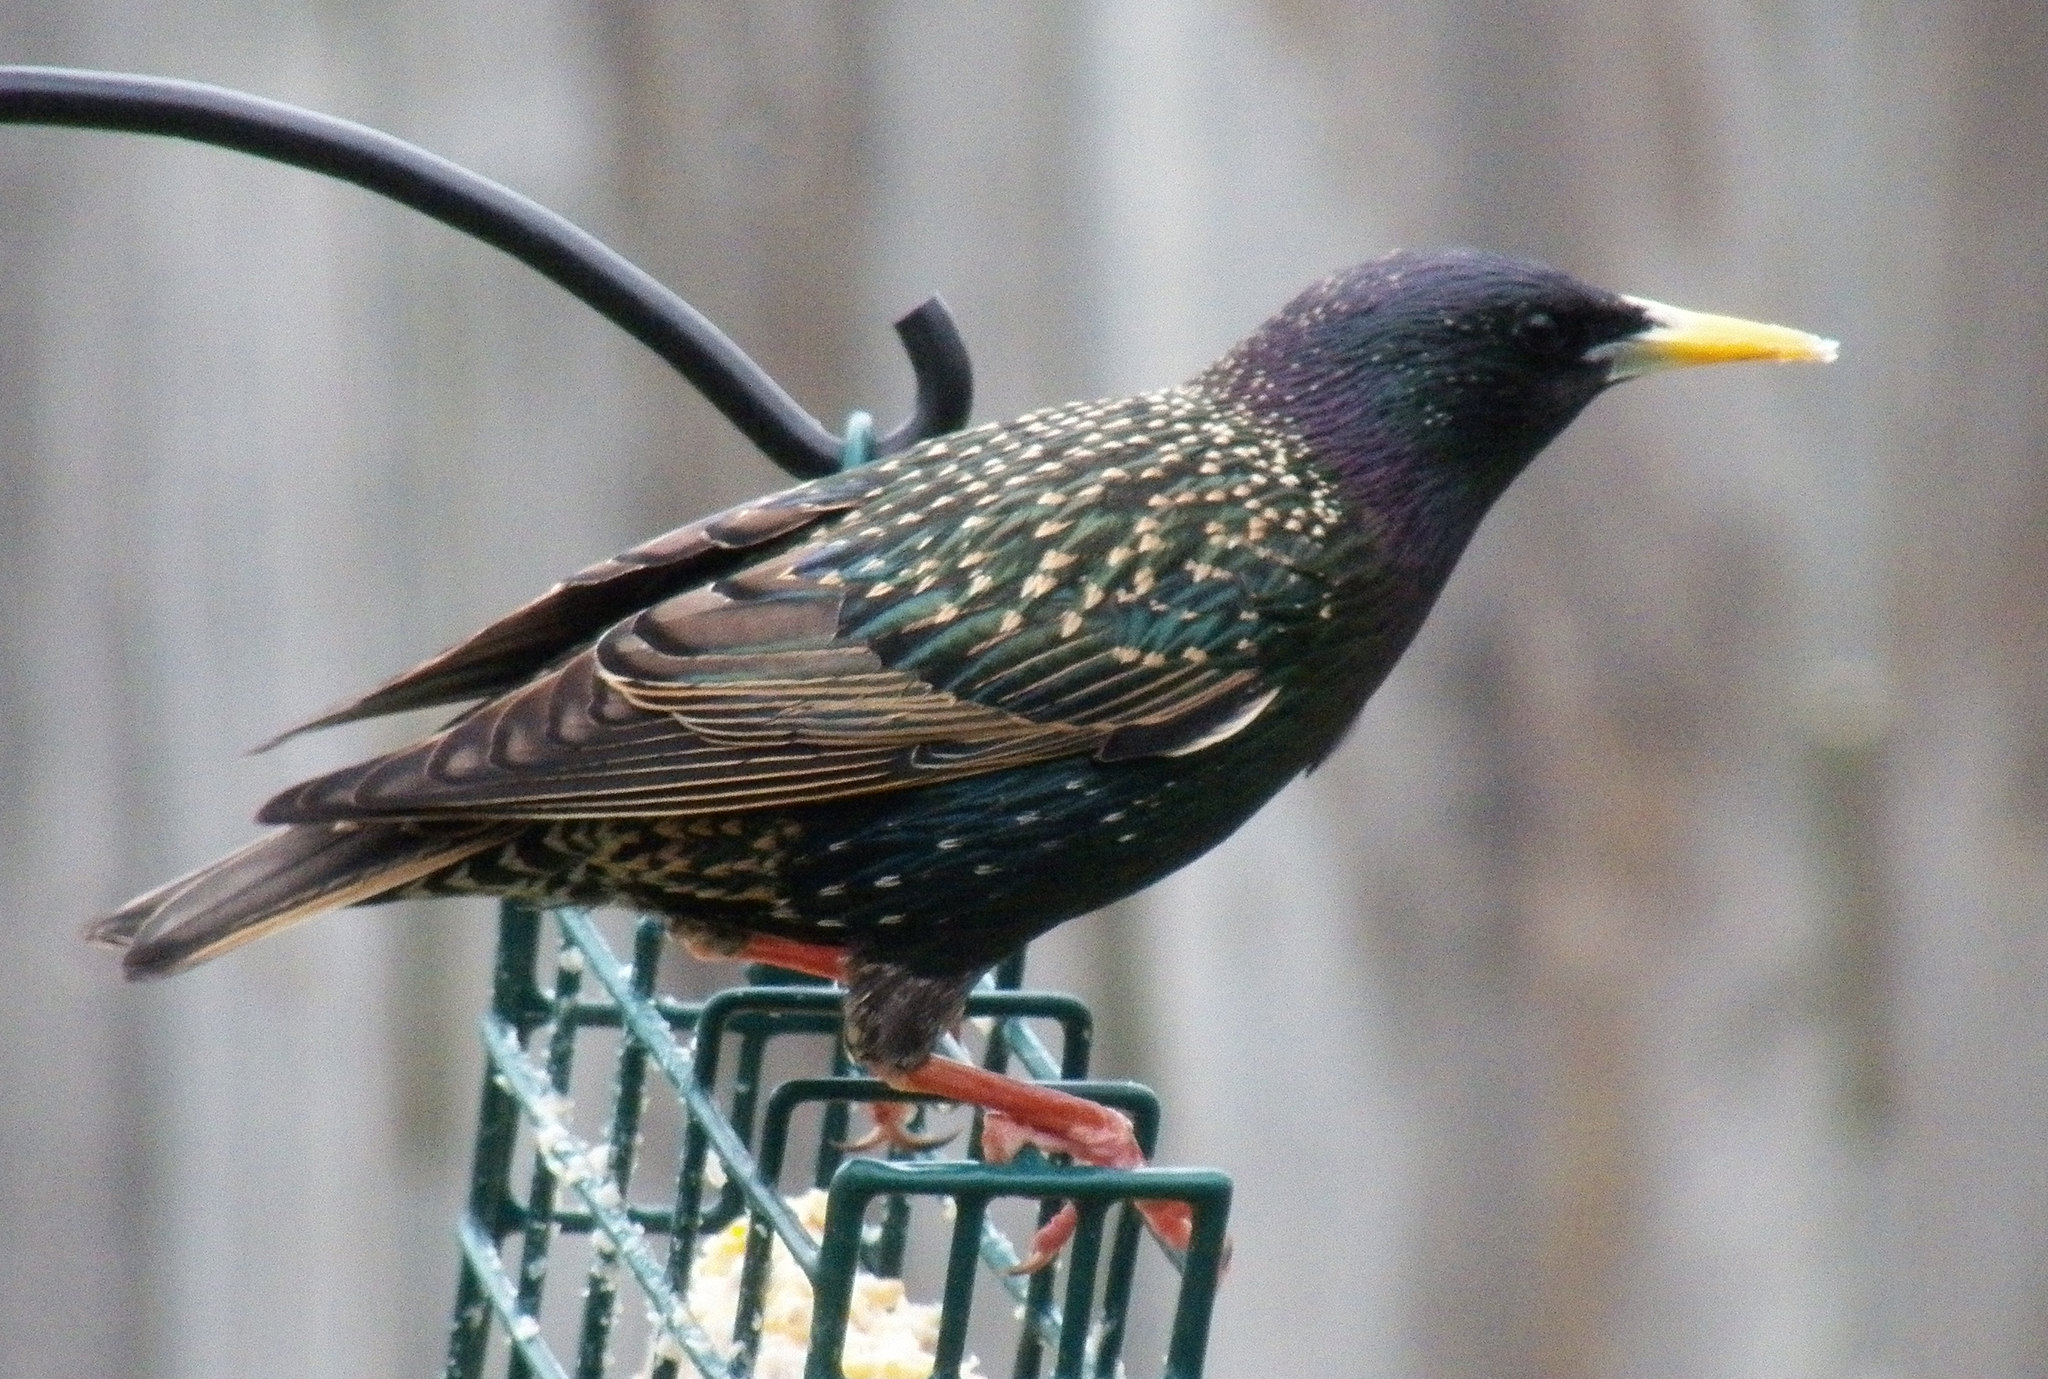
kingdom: Animalia
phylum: Chordata
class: Aves
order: Passeriformes
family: Sturnidae
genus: Sturnus
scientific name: Sturnus vulgaris
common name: Common starling
